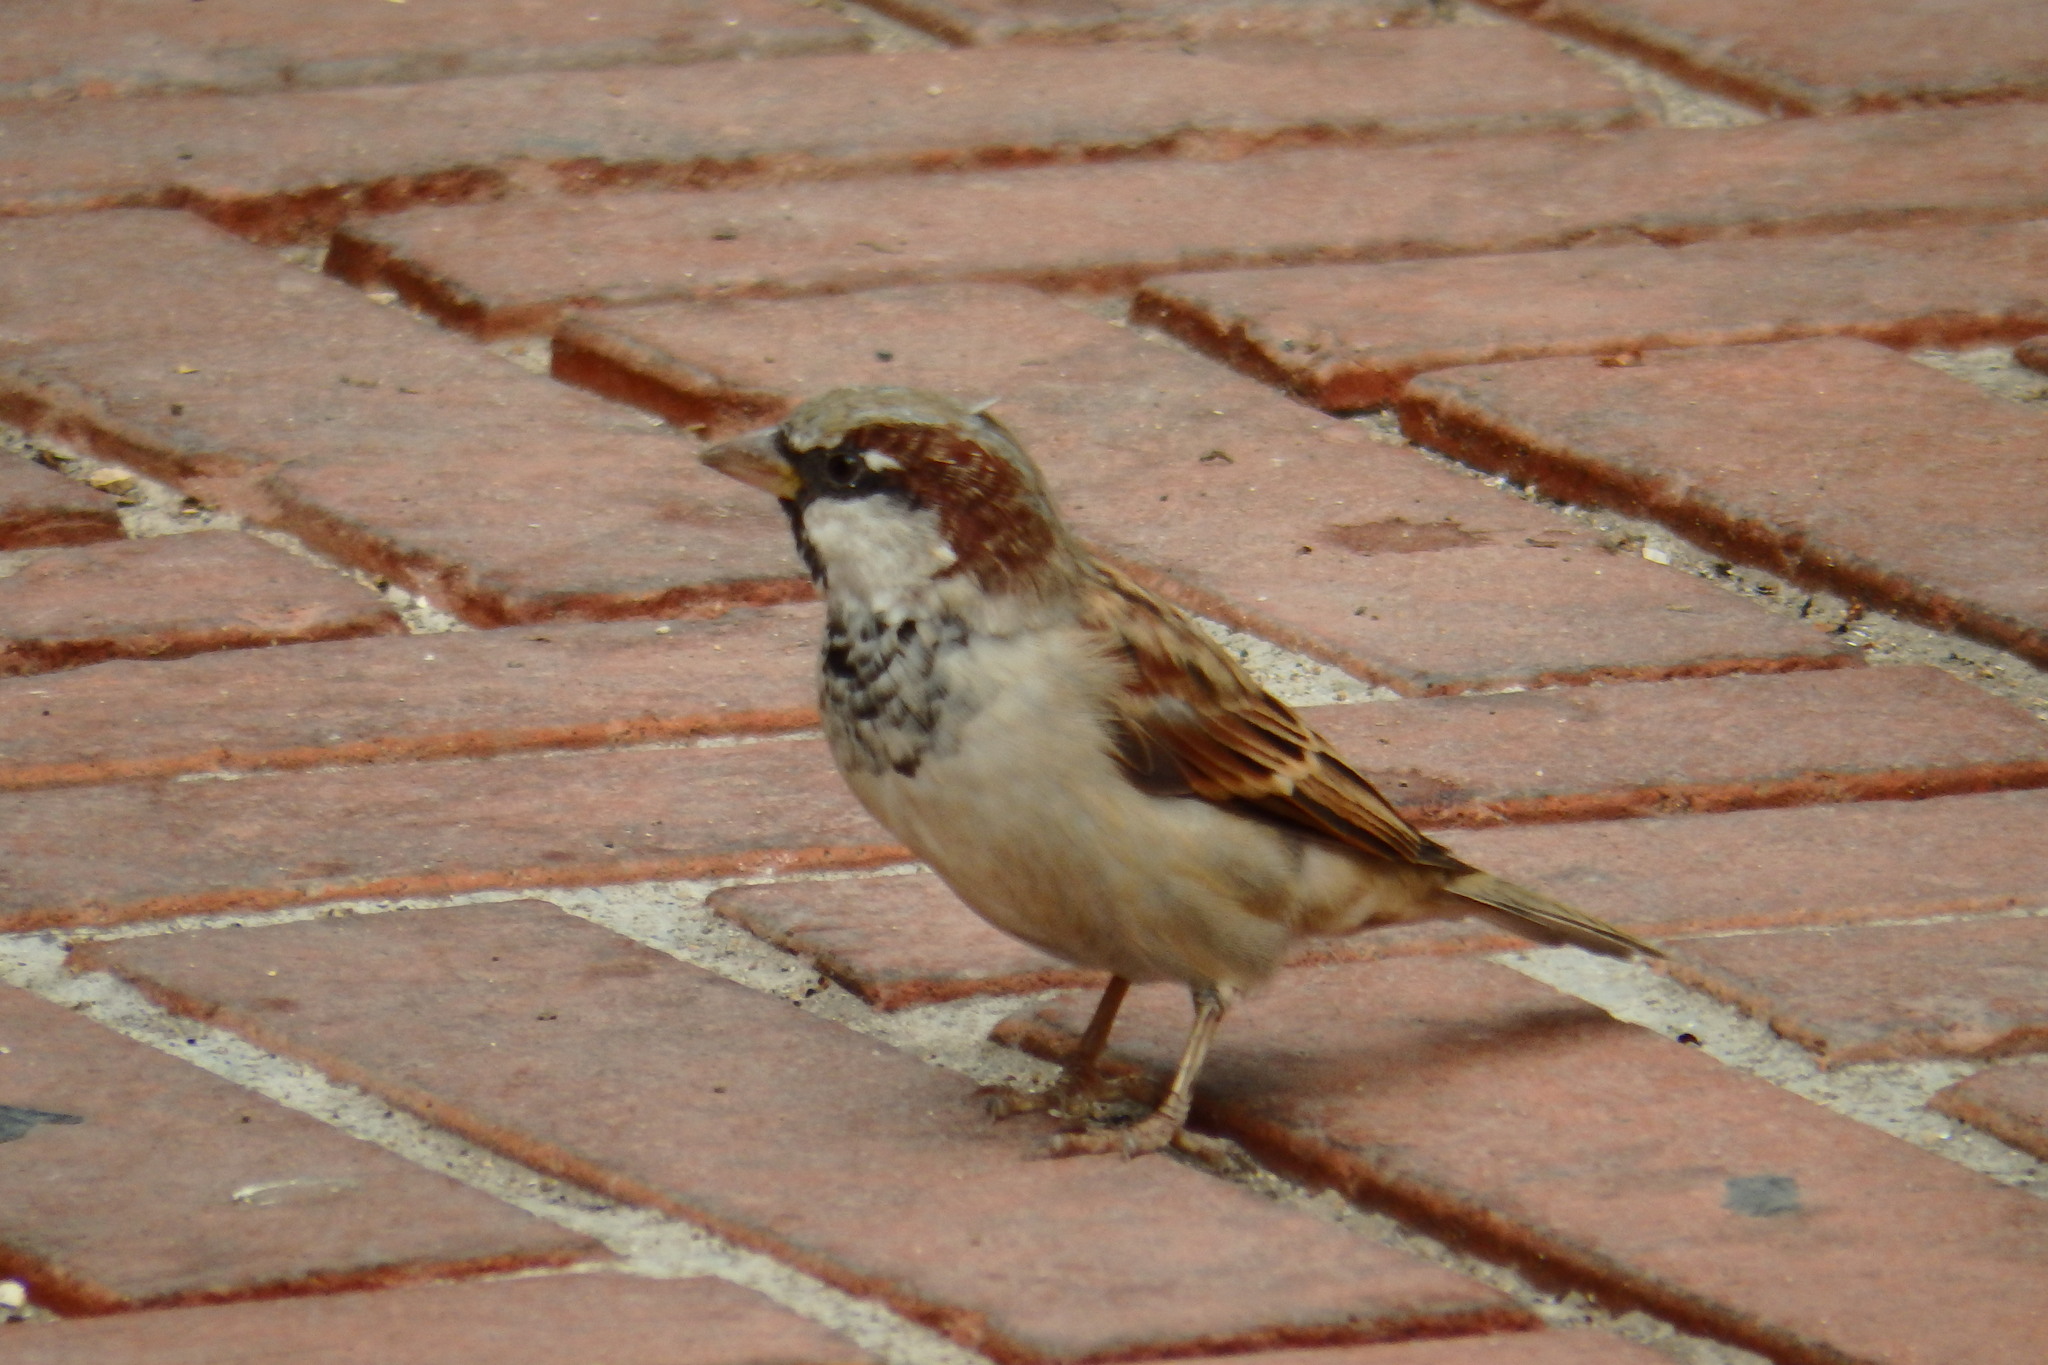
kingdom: Animalia
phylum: Chordata
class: Aves
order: Passeriformes
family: Passeridae
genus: Passer
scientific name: Passer domesticus
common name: House sparrow
